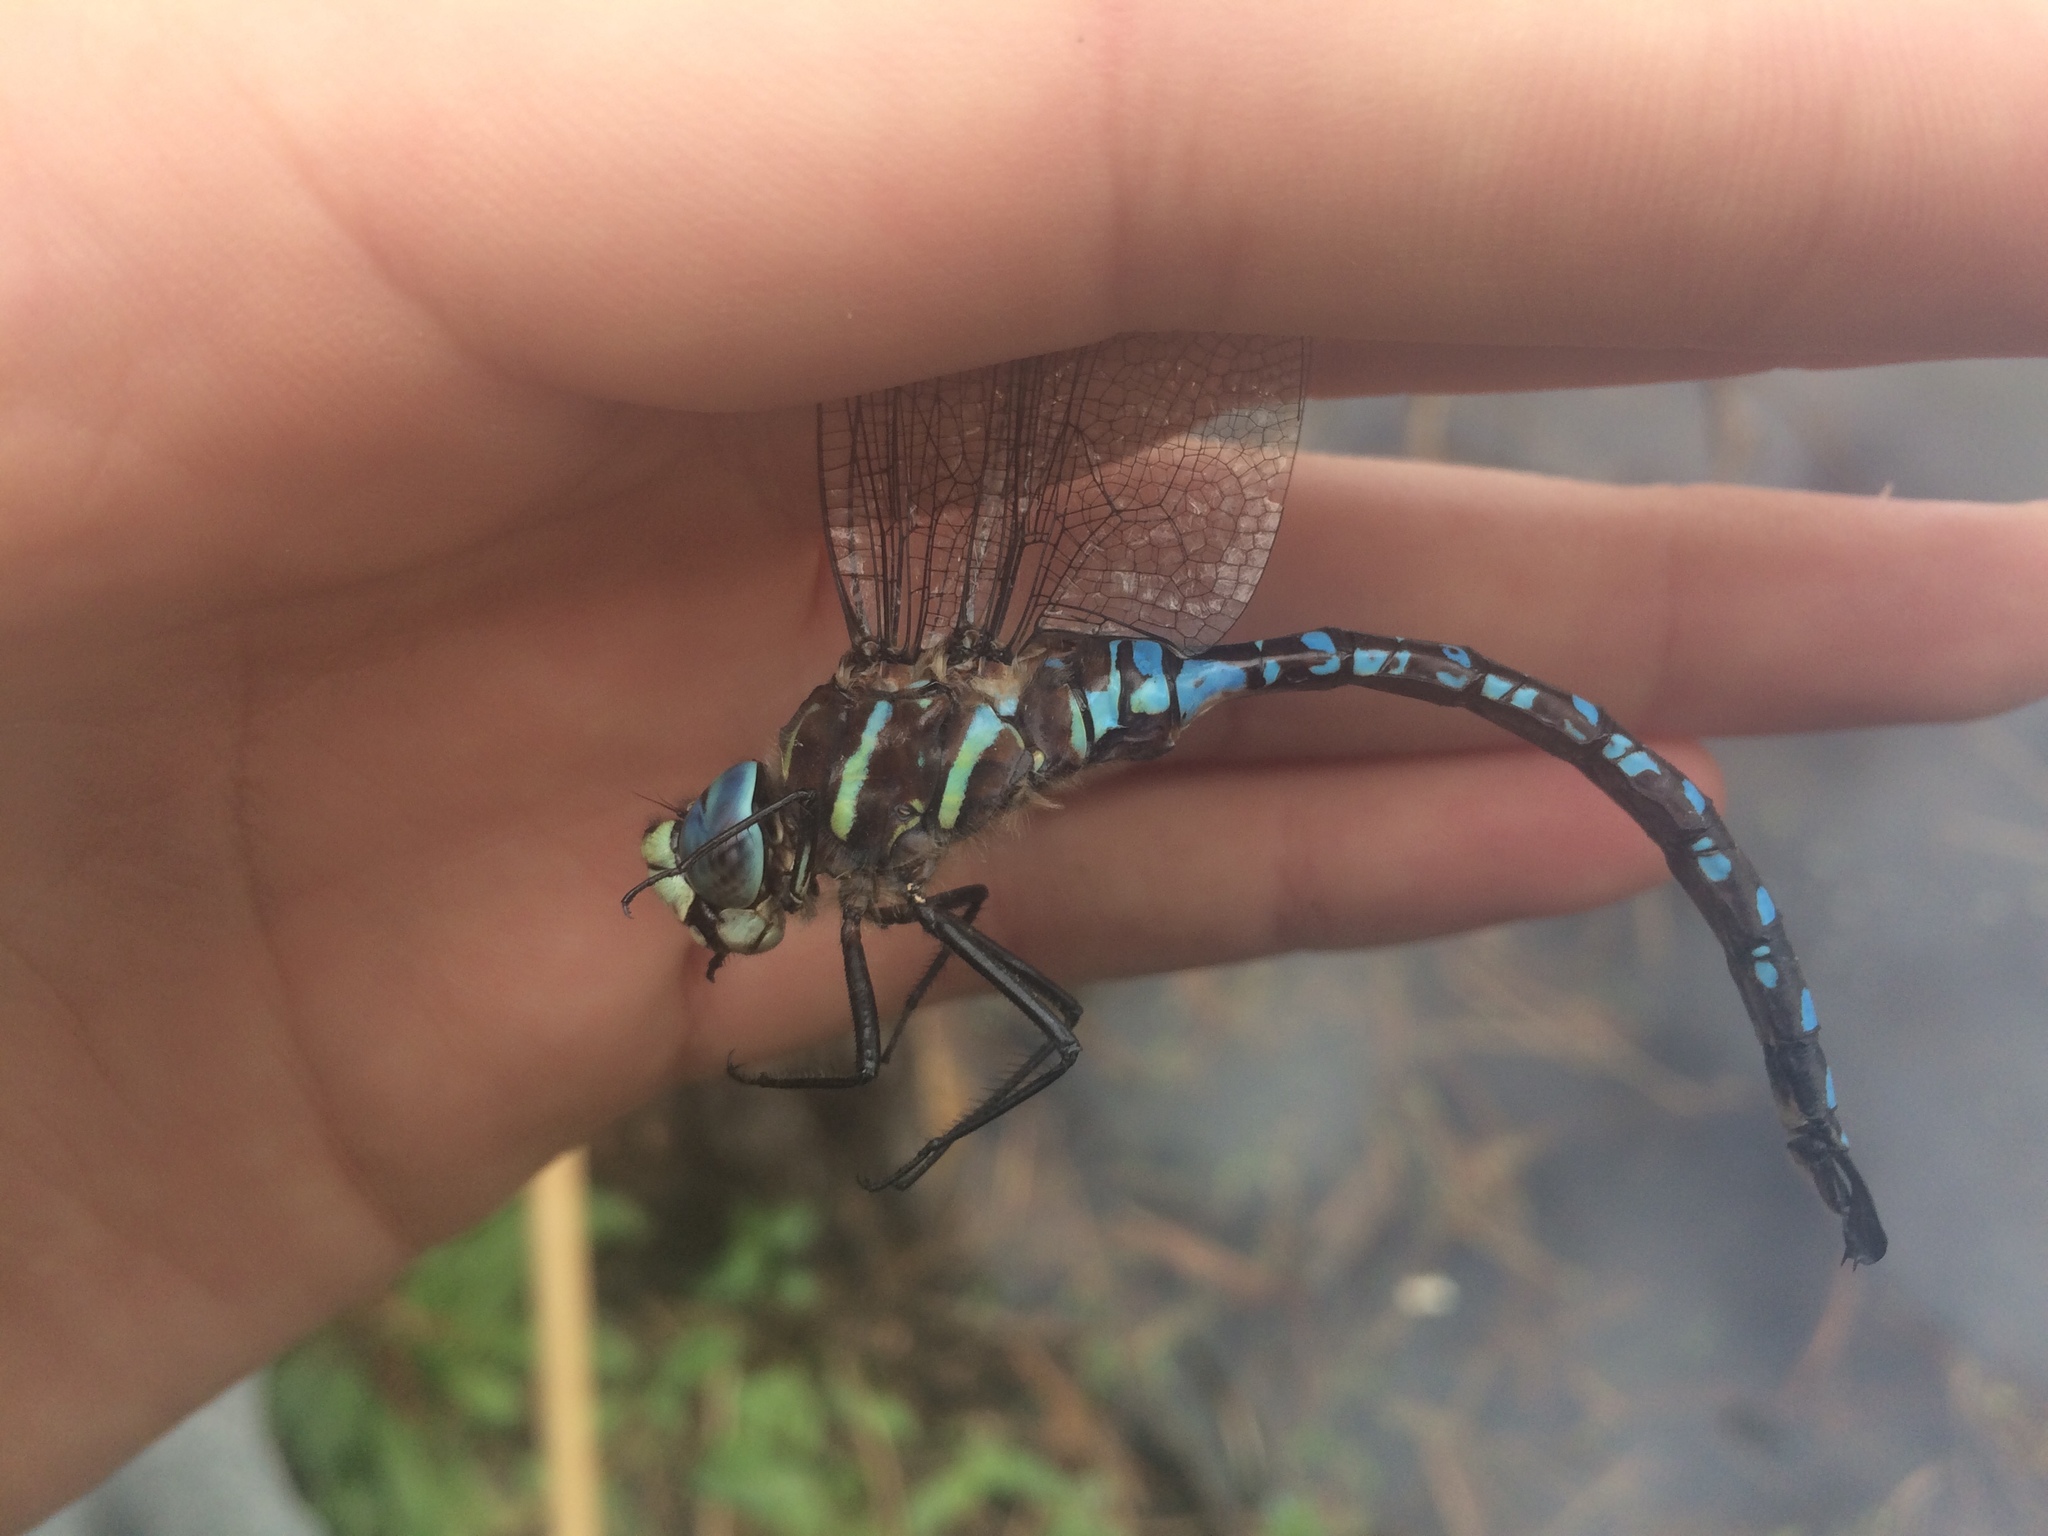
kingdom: Animalia
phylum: Arthropoda
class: Insecta
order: Odonata
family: Aeshnidae
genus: Aeshna
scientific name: Aeshna palmata
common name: Paddle-tailed darner
